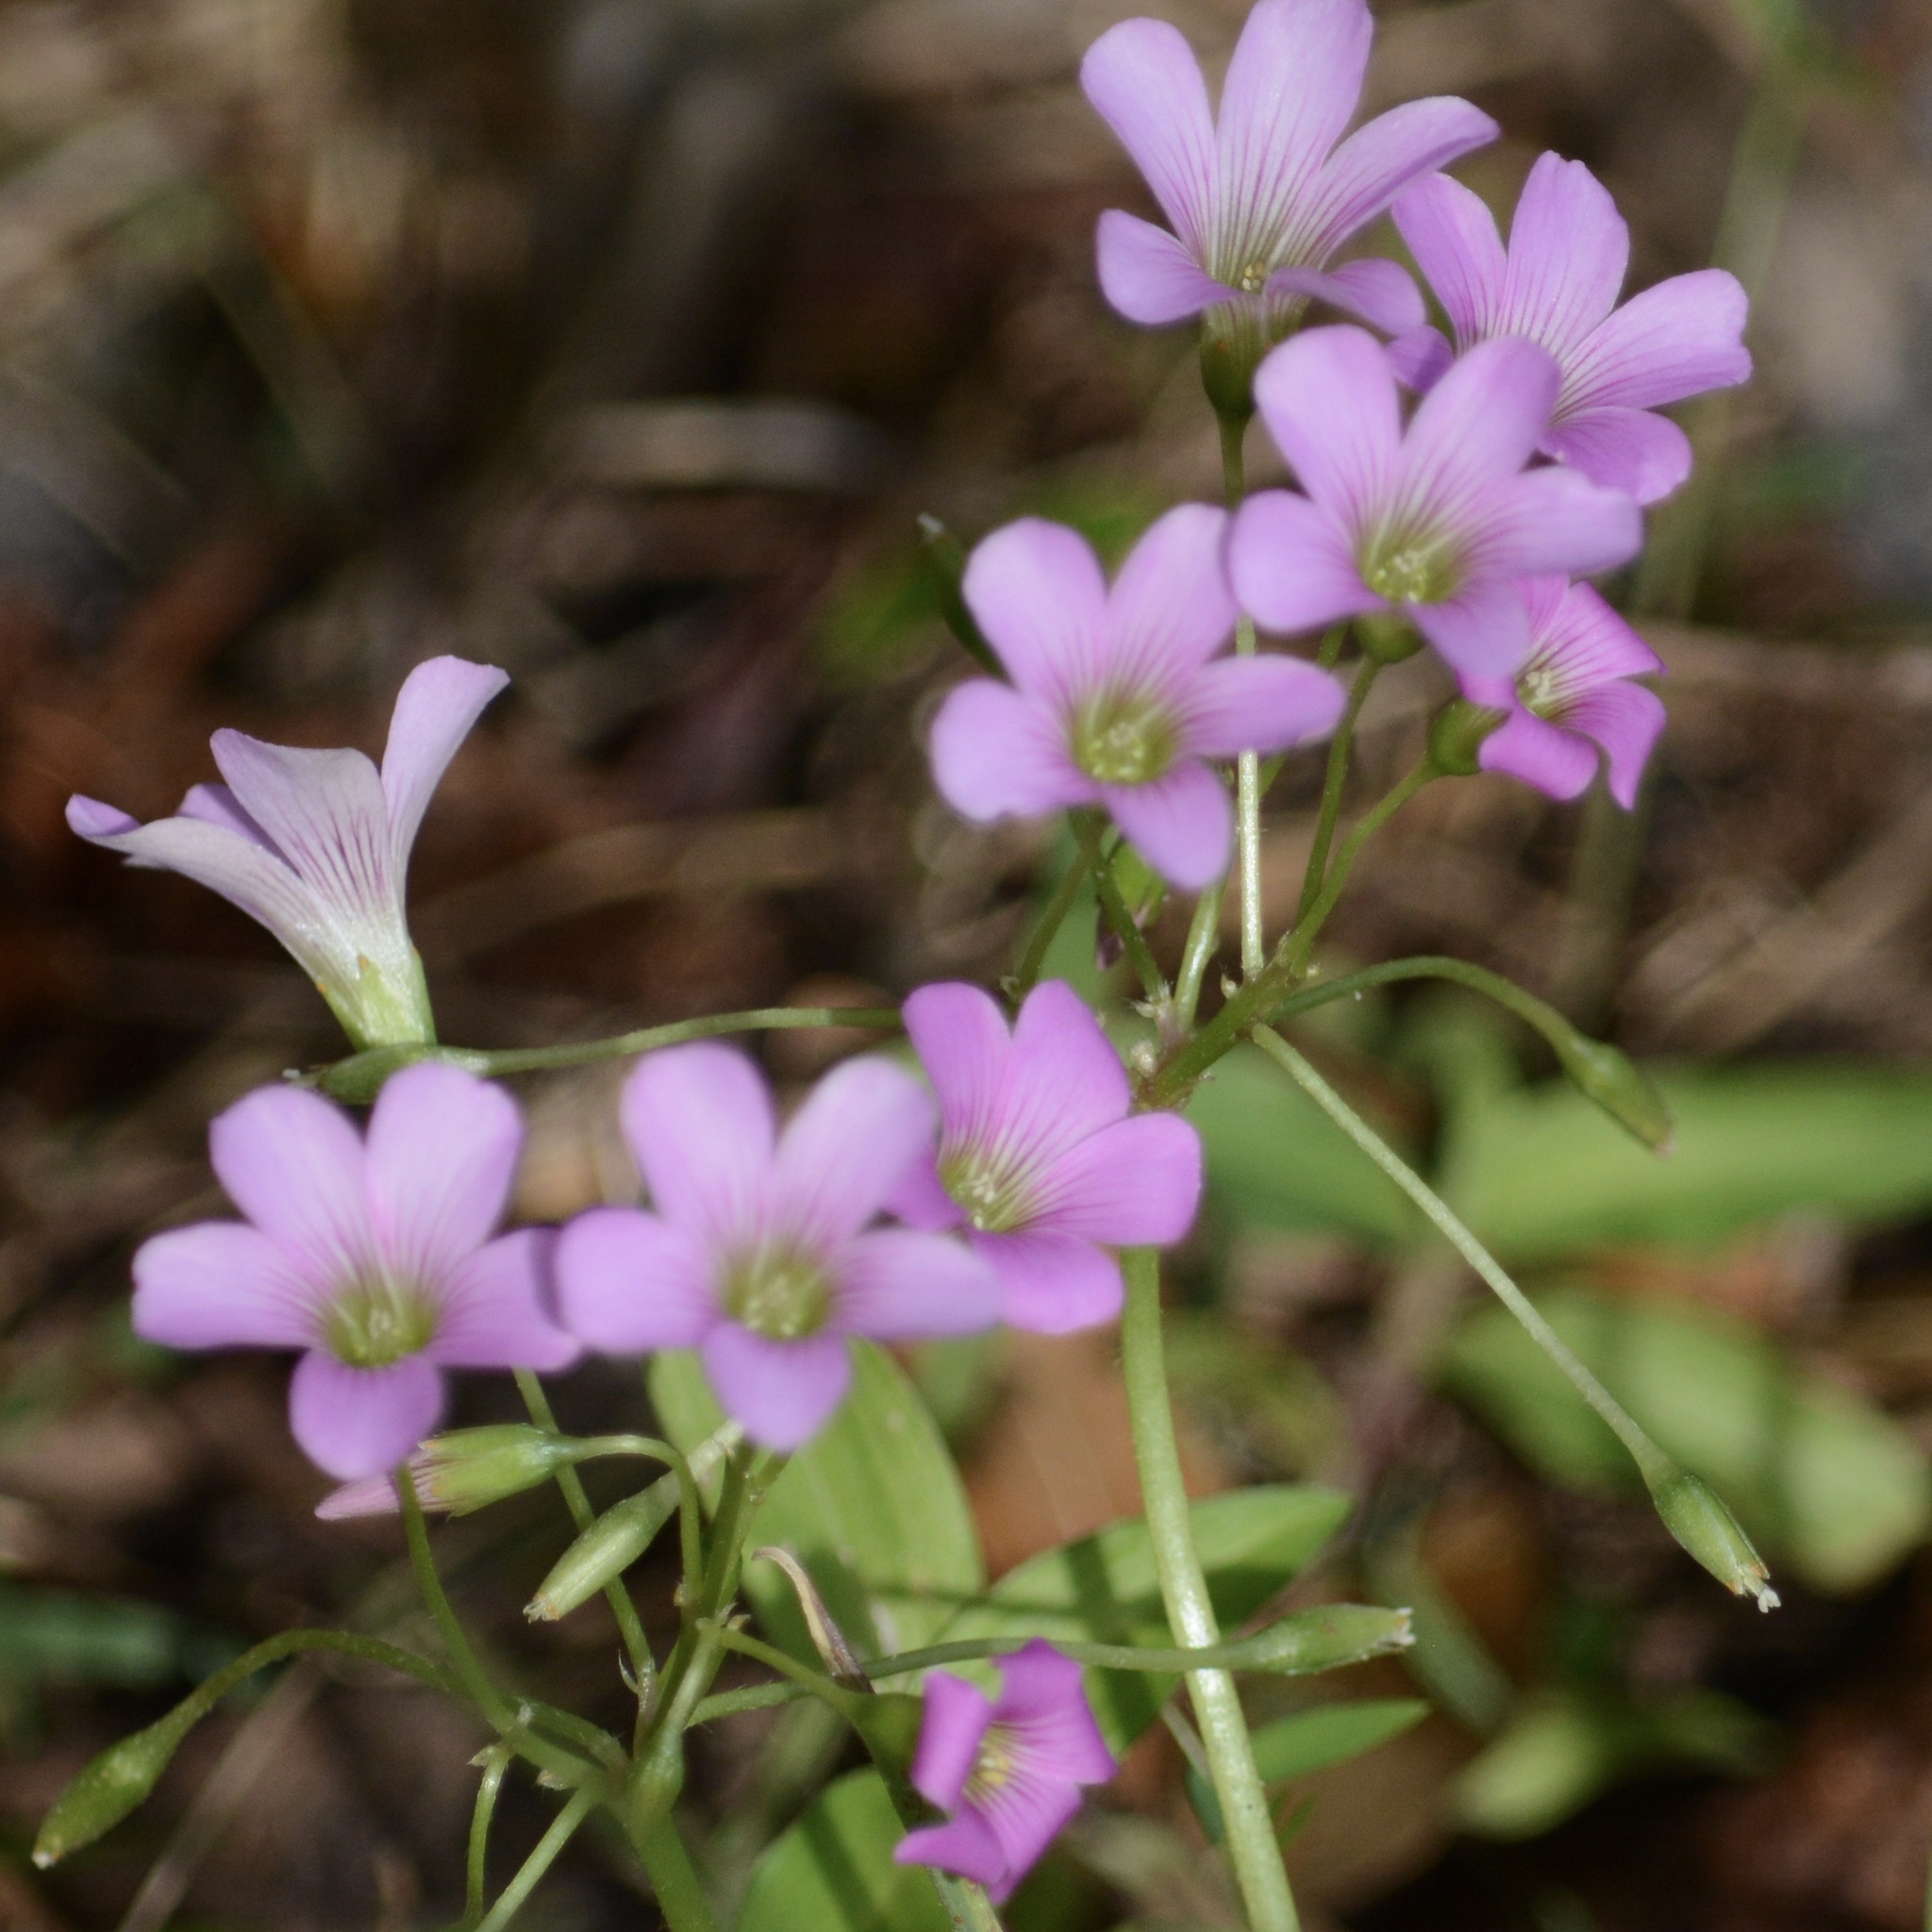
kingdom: Plantae
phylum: Tracheophyta
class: Magnoliopsida
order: Oxalidales
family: Oxalidaceae
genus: Oxalis
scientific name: Oxalis debilis
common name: Large-flowered pink-sorrel
